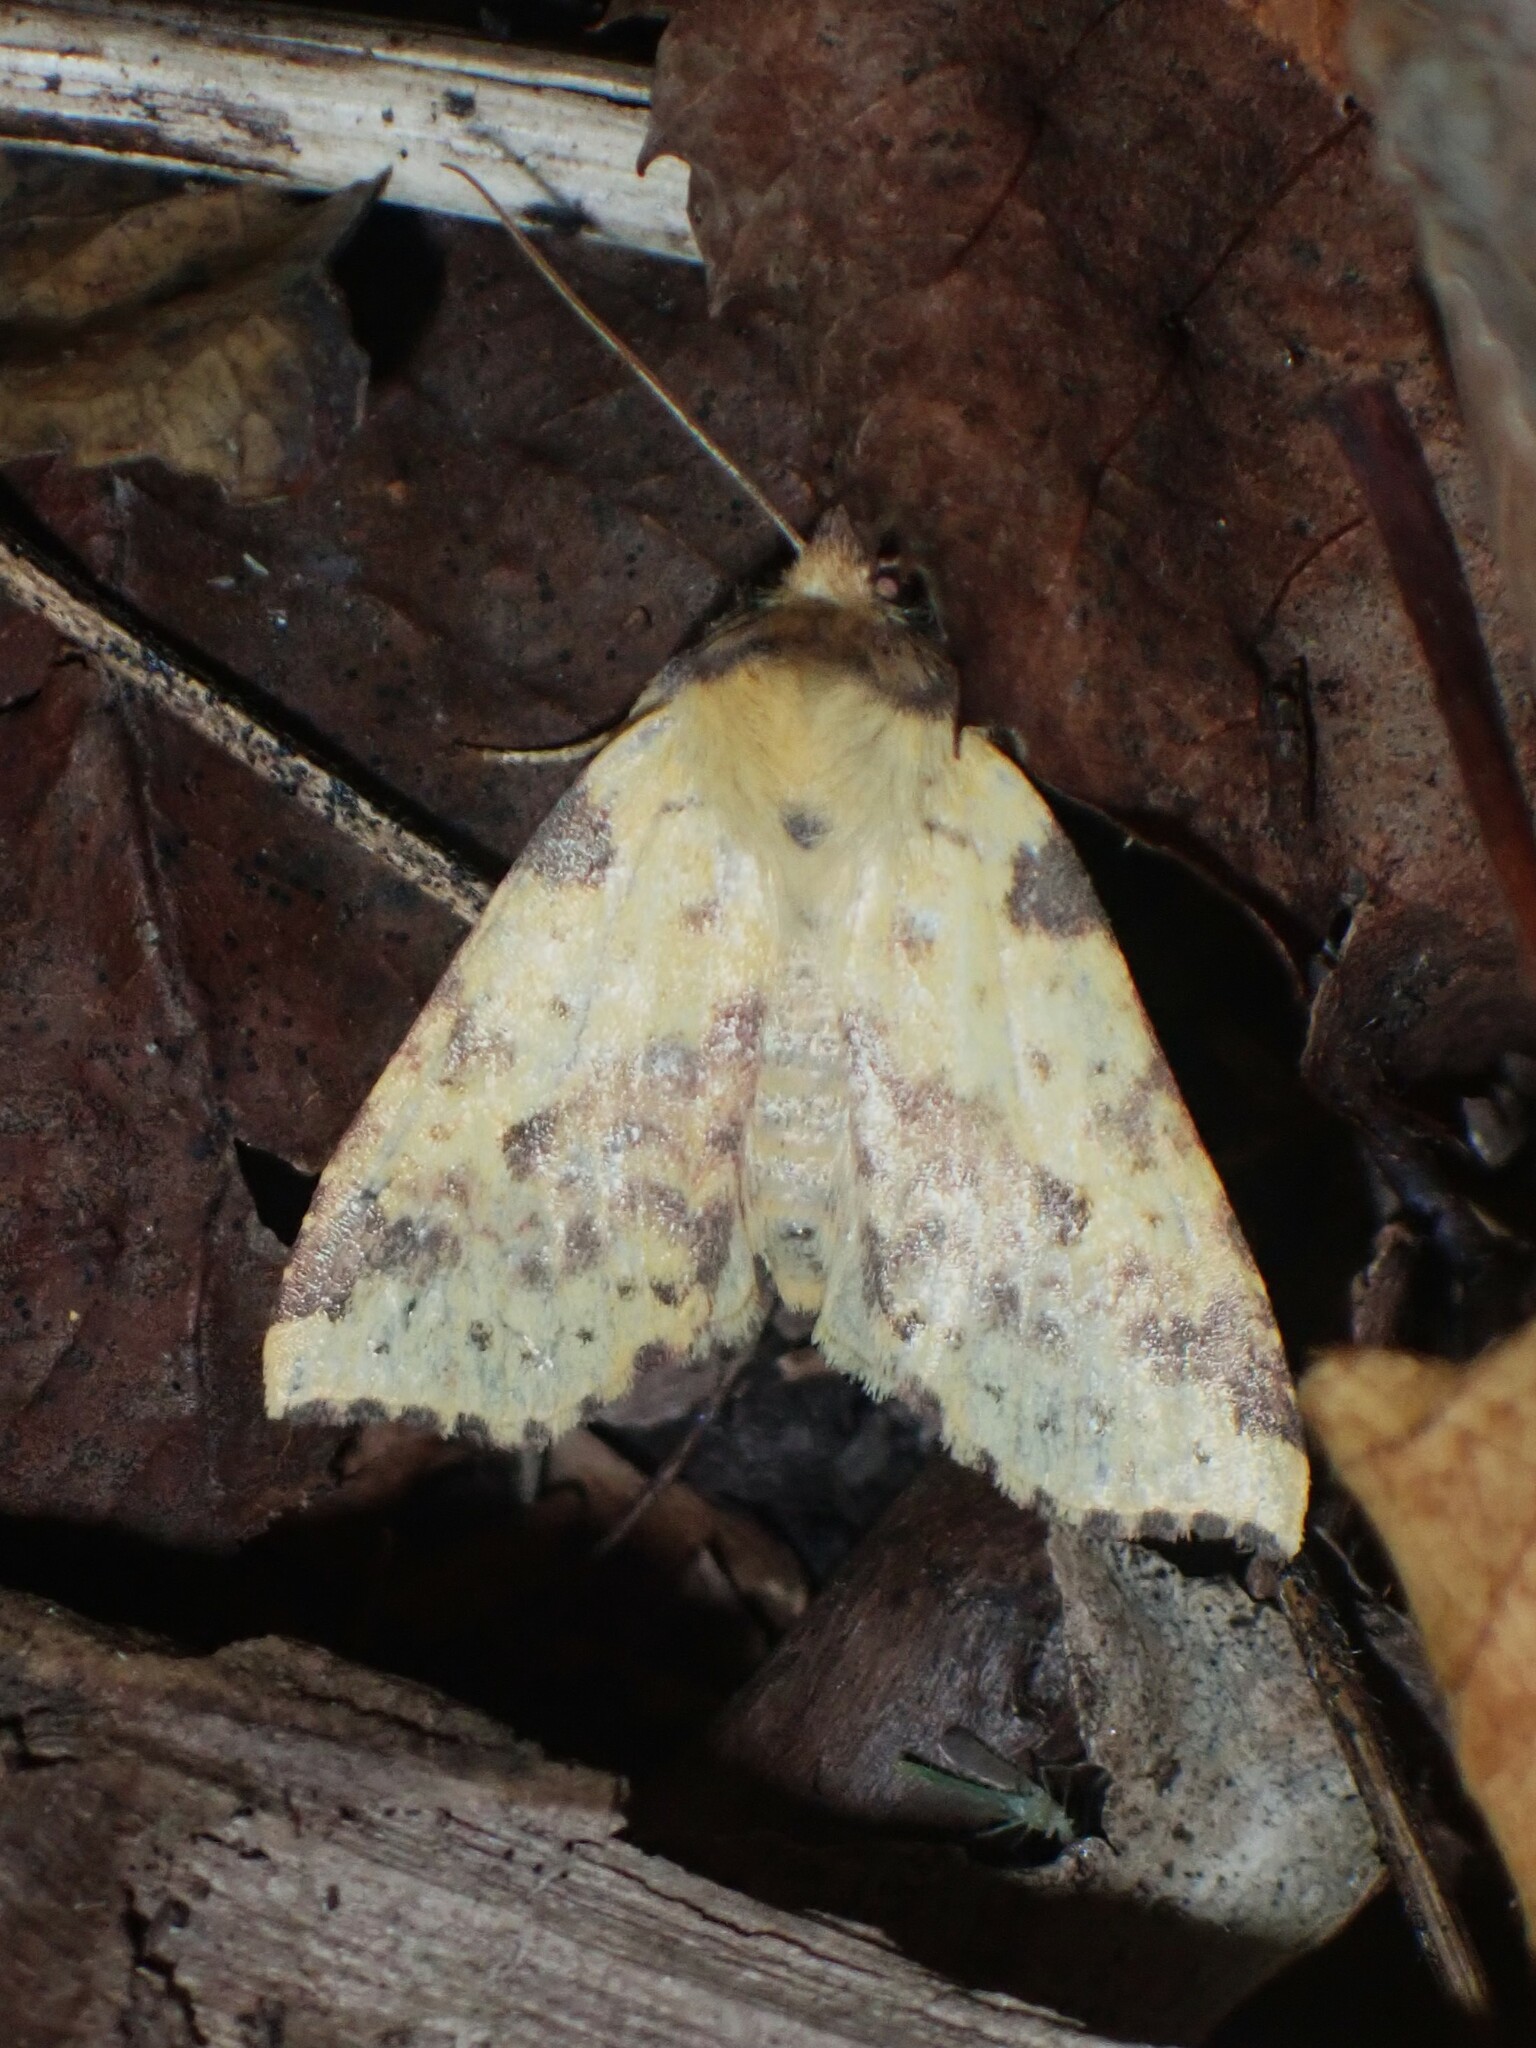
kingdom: Animalia
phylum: Arthropoda
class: Insecta
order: Lepidoptera
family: Noctuidae
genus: Xanthia
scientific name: Xanthia tatago
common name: Pink-banded sallow
